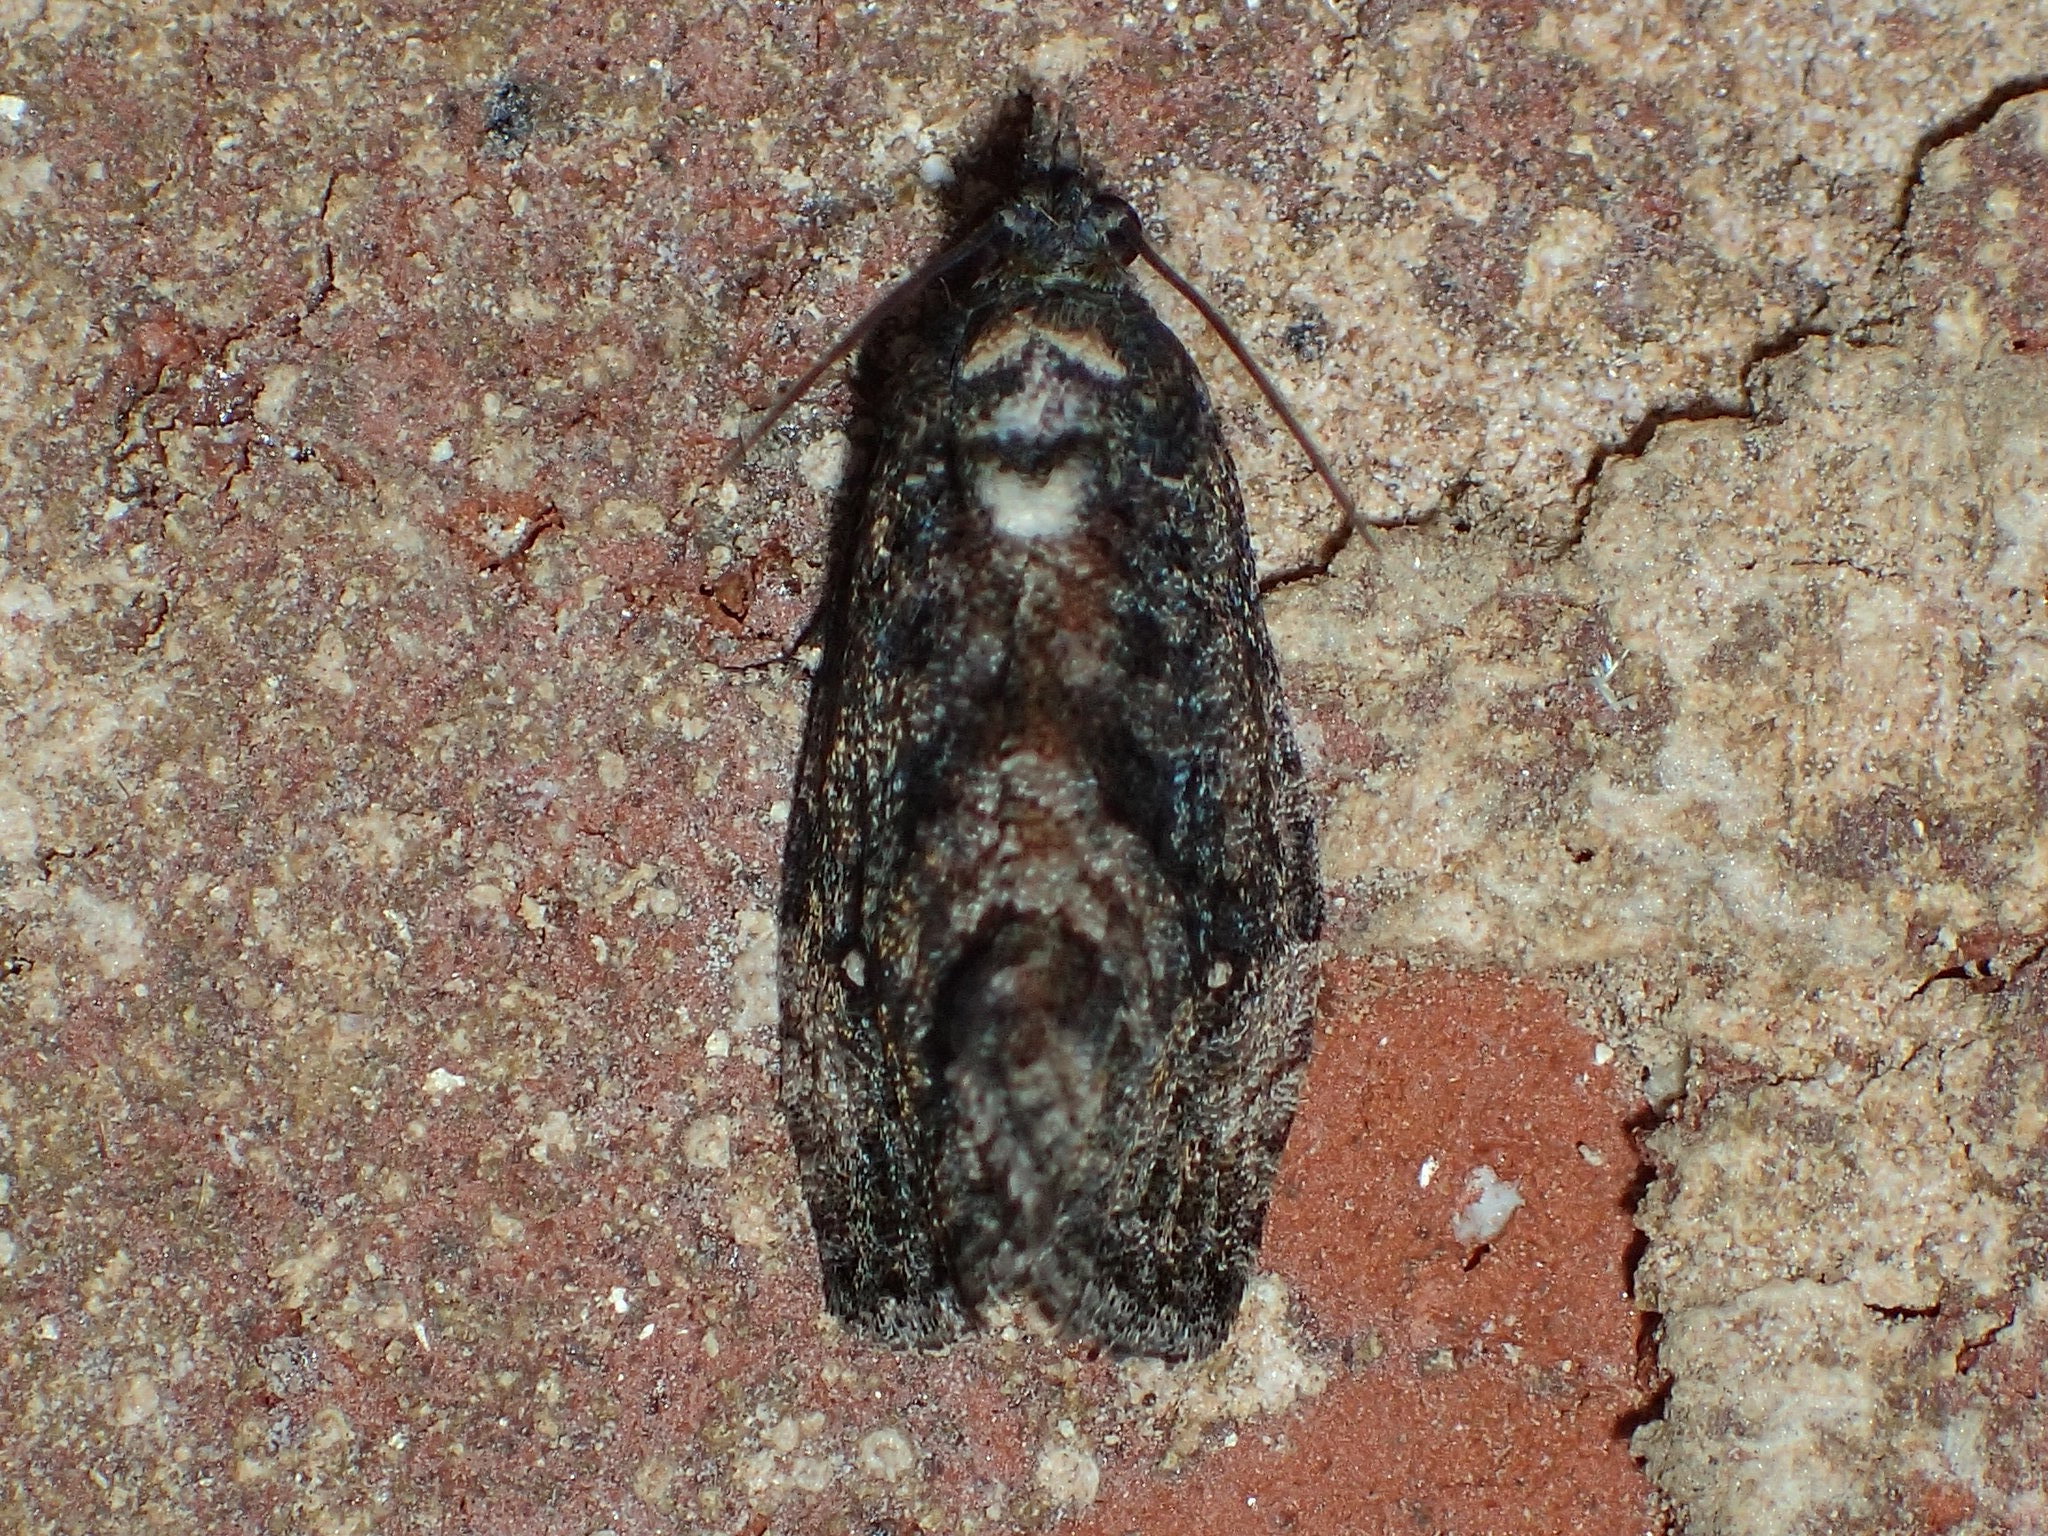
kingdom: Animalia
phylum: Arthropoda
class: Insecta
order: Lepidoptera
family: Tortricidae
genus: Gymnandrosoma
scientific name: Gymnandrosoma punctidiscanum
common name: Dotted ecdytolopha moth
